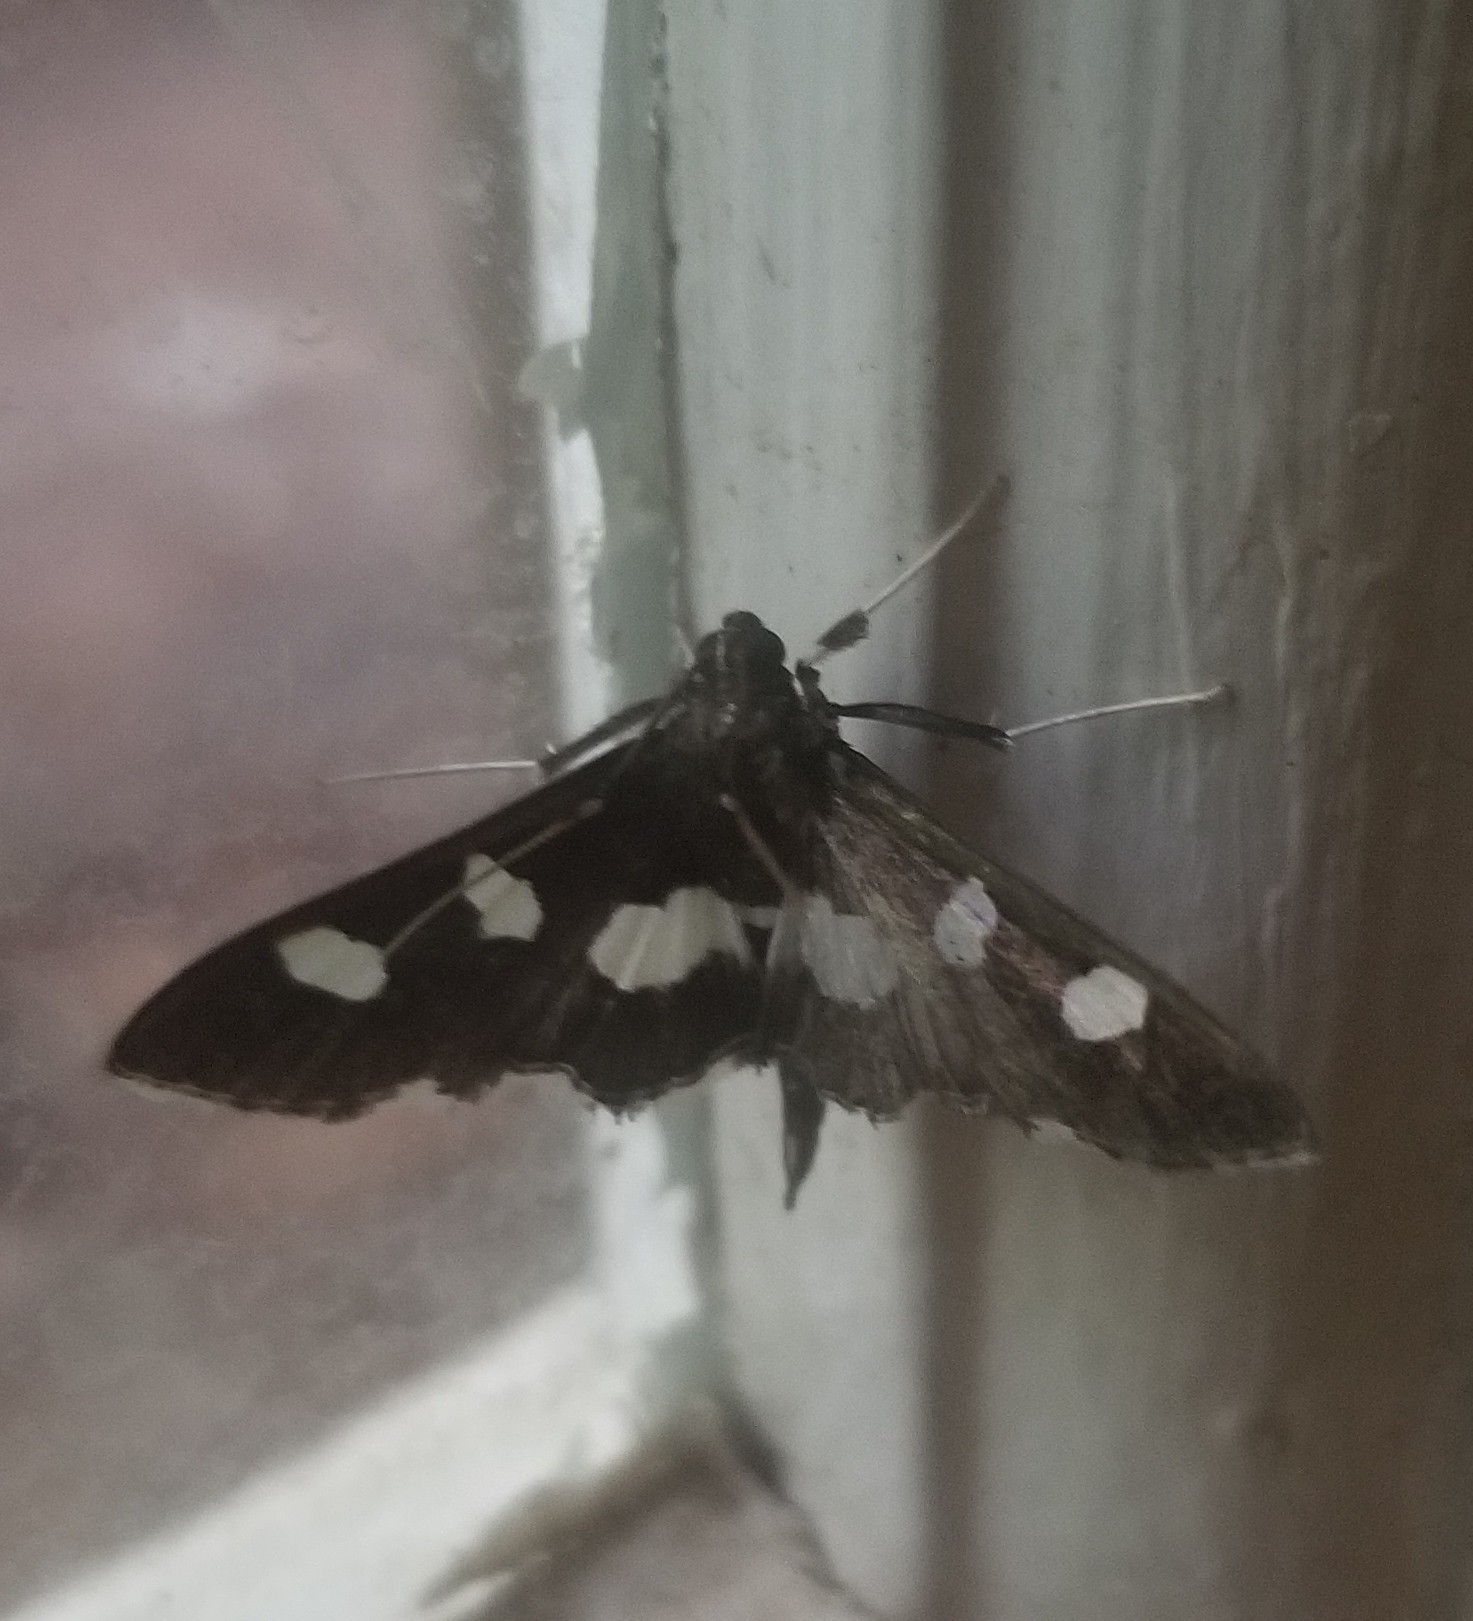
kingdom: Animalia
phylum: Arthropoda
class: Insecta
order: Lepidoptera
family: Crambidae
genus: Desmia
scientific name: Desmia
